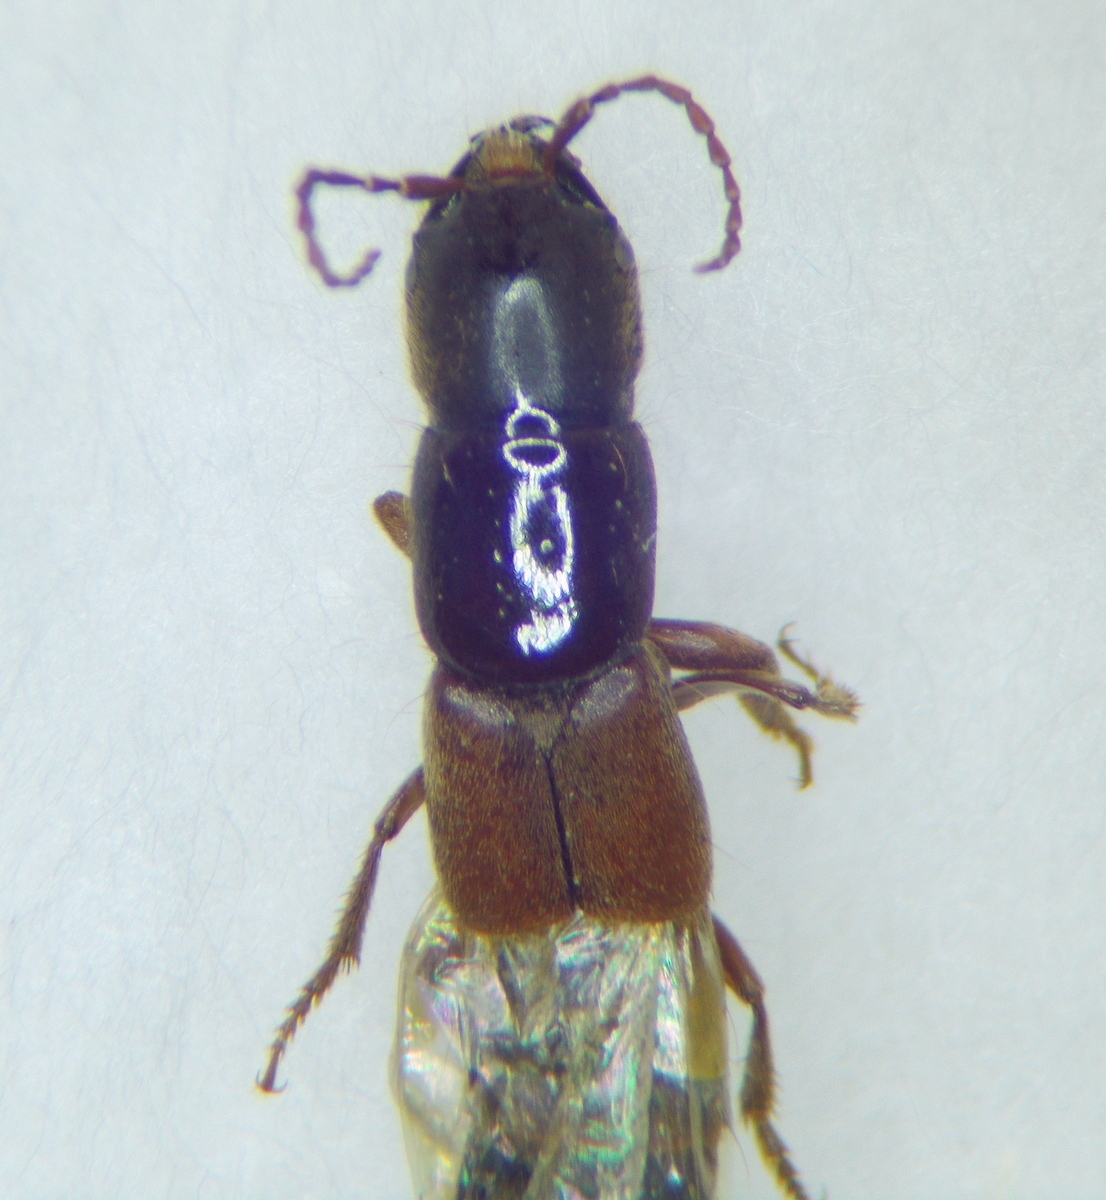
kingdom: Animalia
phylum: Arthropoda
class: Insecta
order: Coleoptera
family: Staphylinidae
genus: Platyprosopus
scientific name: Platyprosopus elongatus
